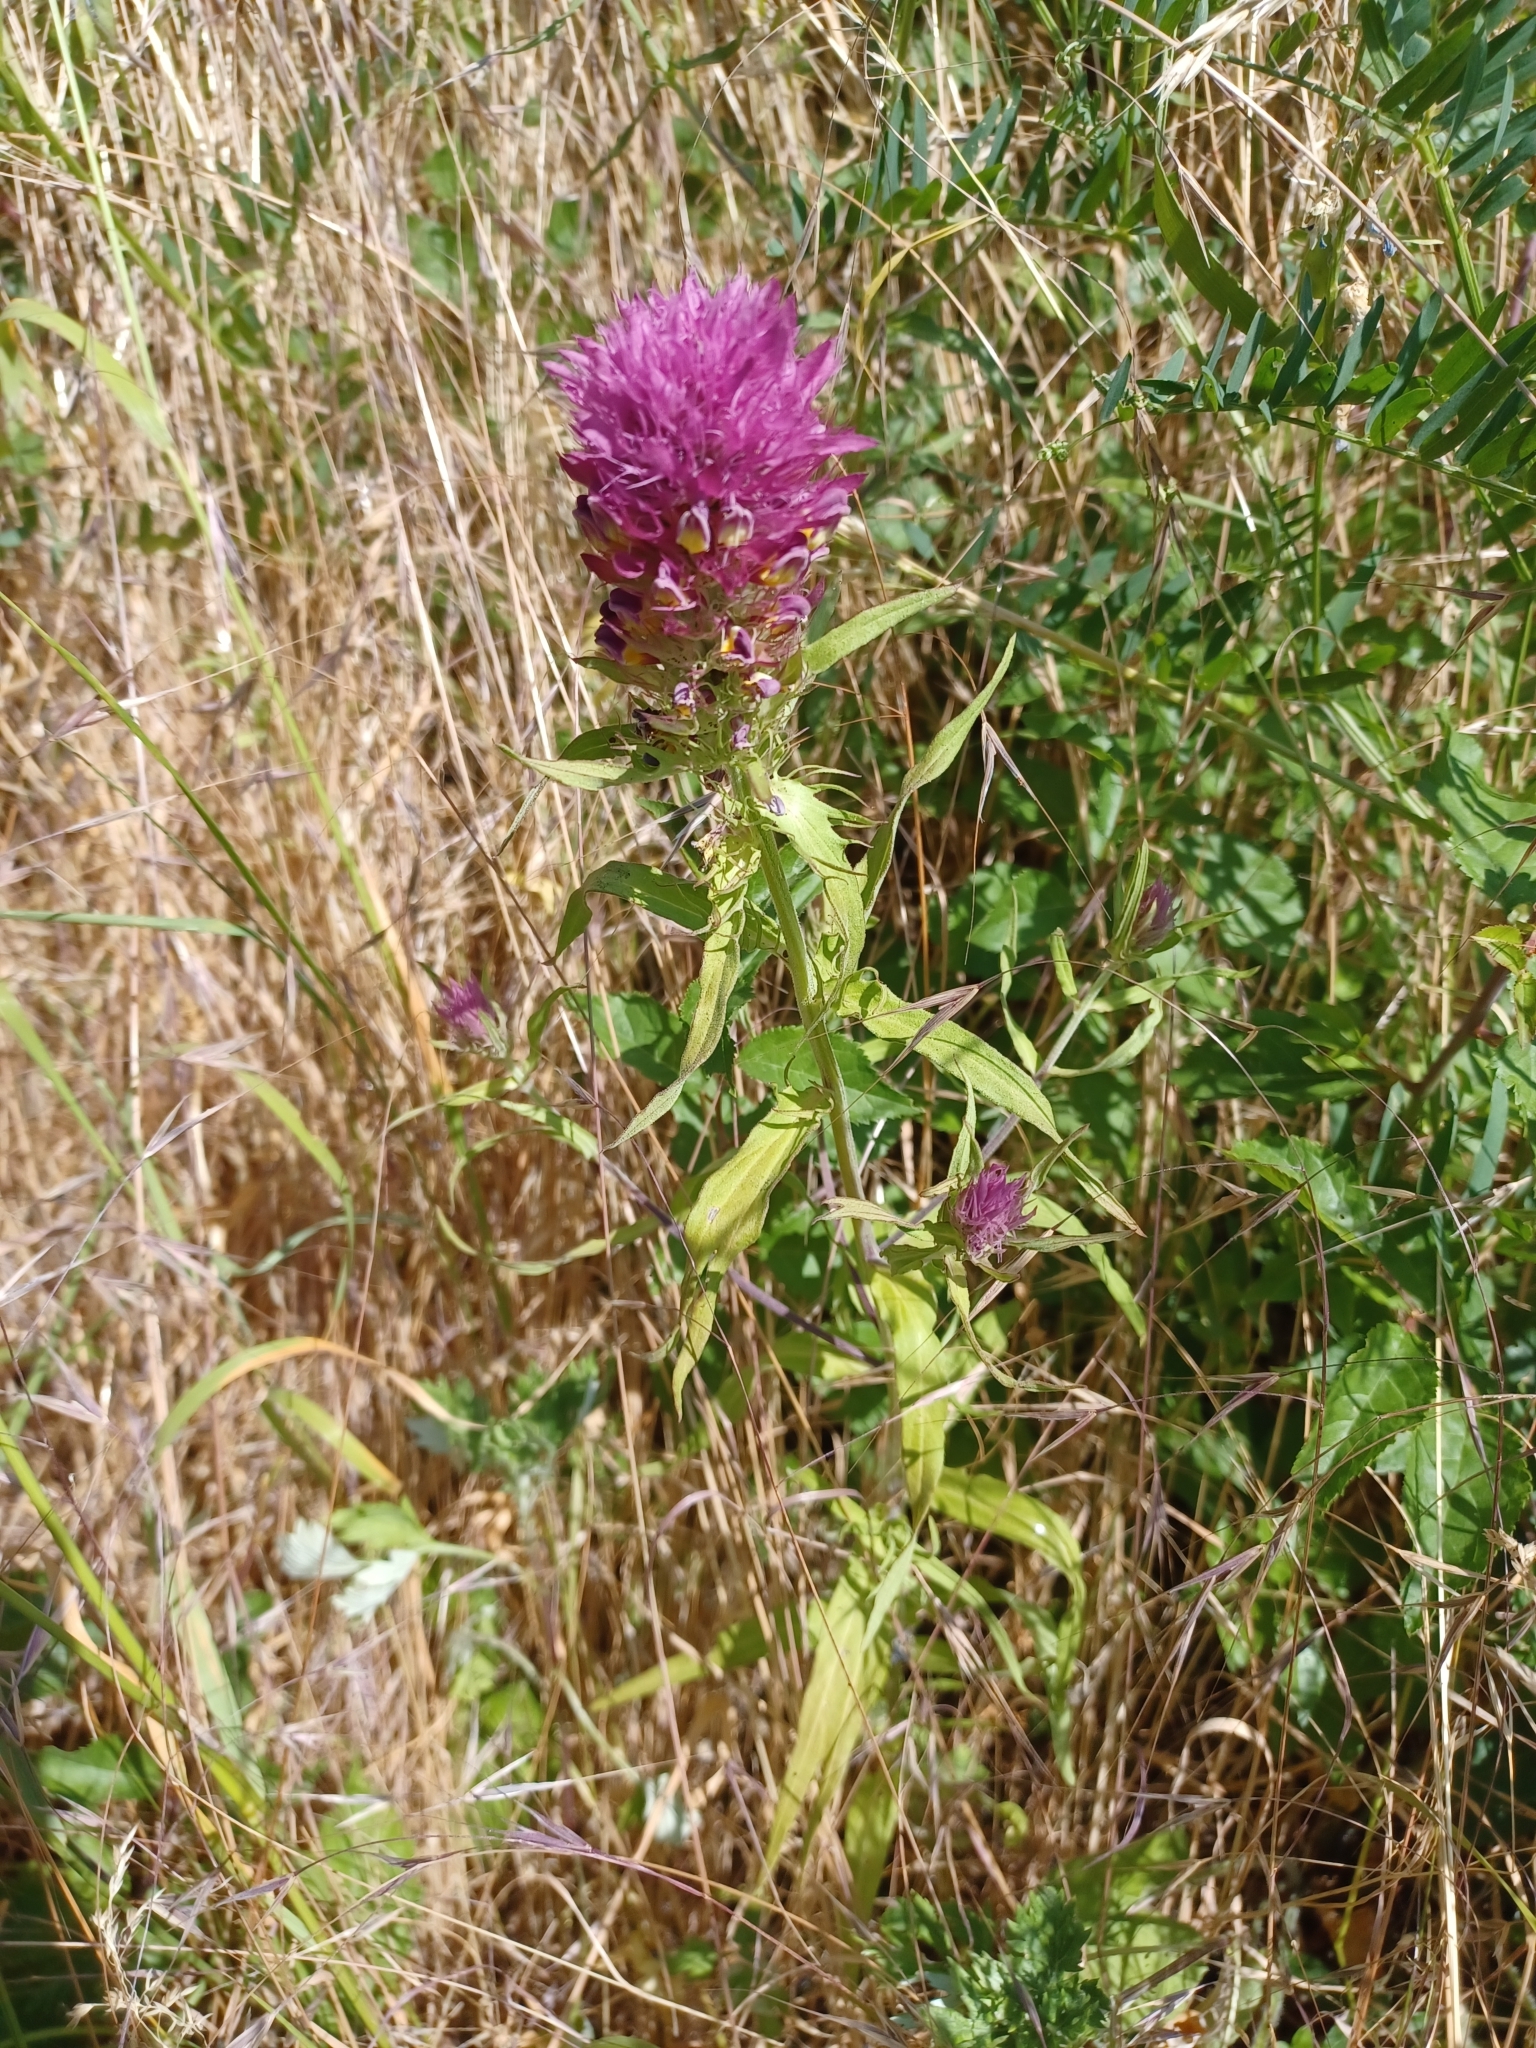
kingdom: Plantae
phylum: Tracheophyta
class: Magnoliopsida
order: Lamiales
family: Orobanchaceae
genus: Melampyrum
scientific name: Melampyrum arvense
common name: Field cow-wheat
